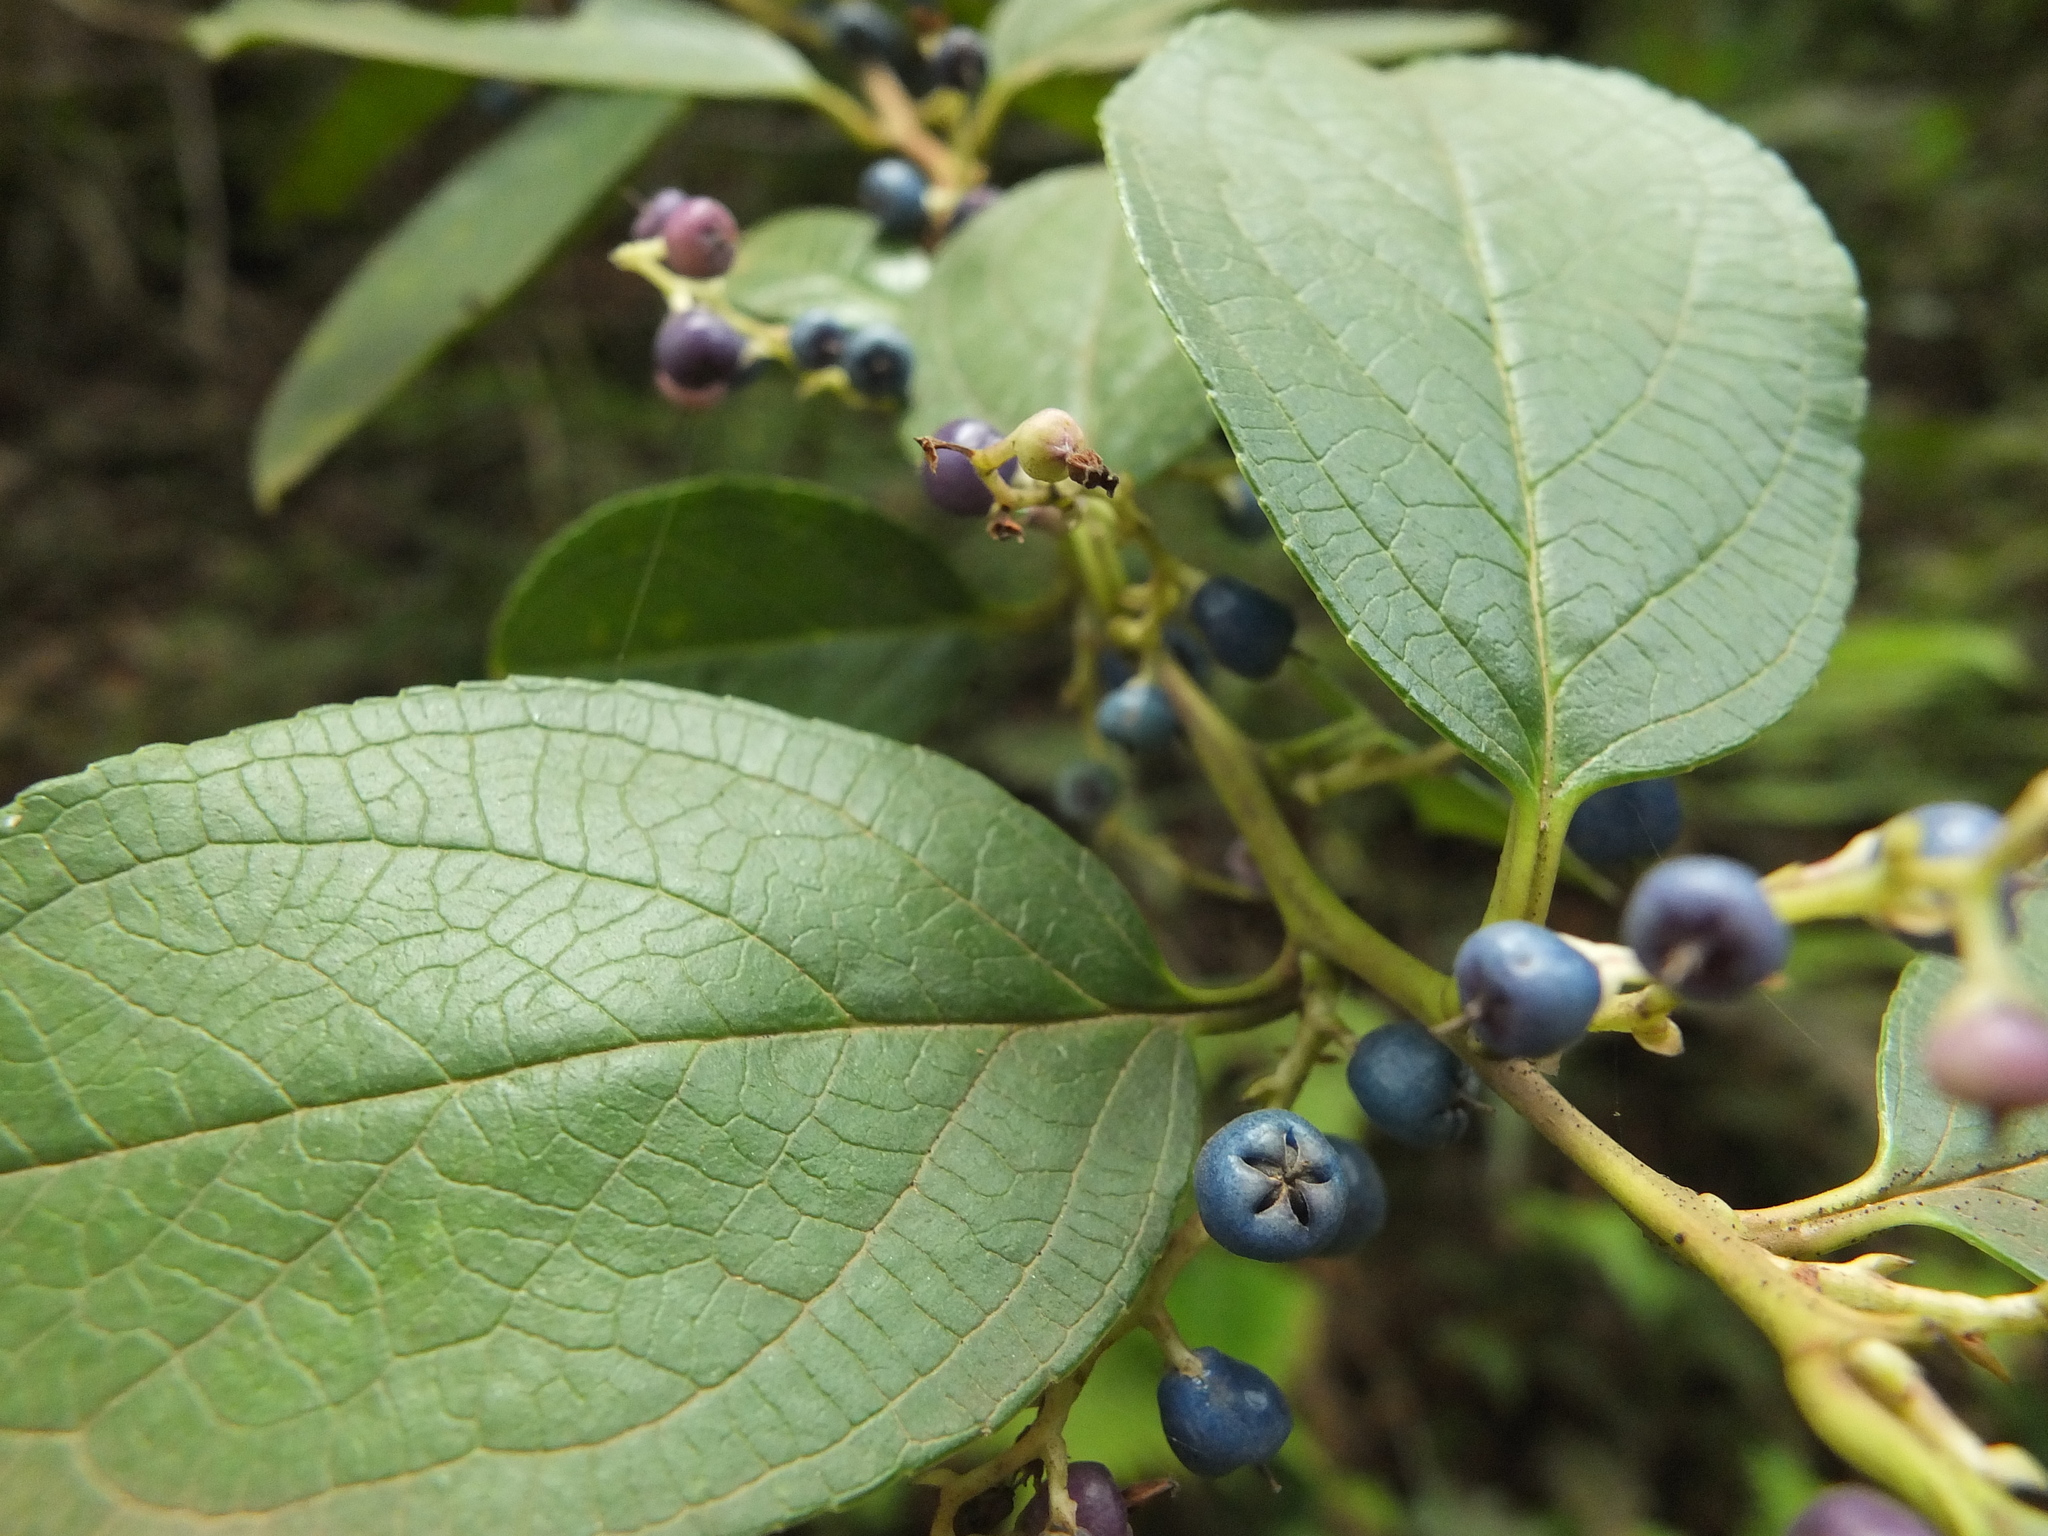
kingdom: Plantae
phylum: Tracheophyta
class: Magnoliopsida
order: Ericales
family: Ericaceae
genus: Gaultheria
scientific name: Gaultheria fragrantissima
